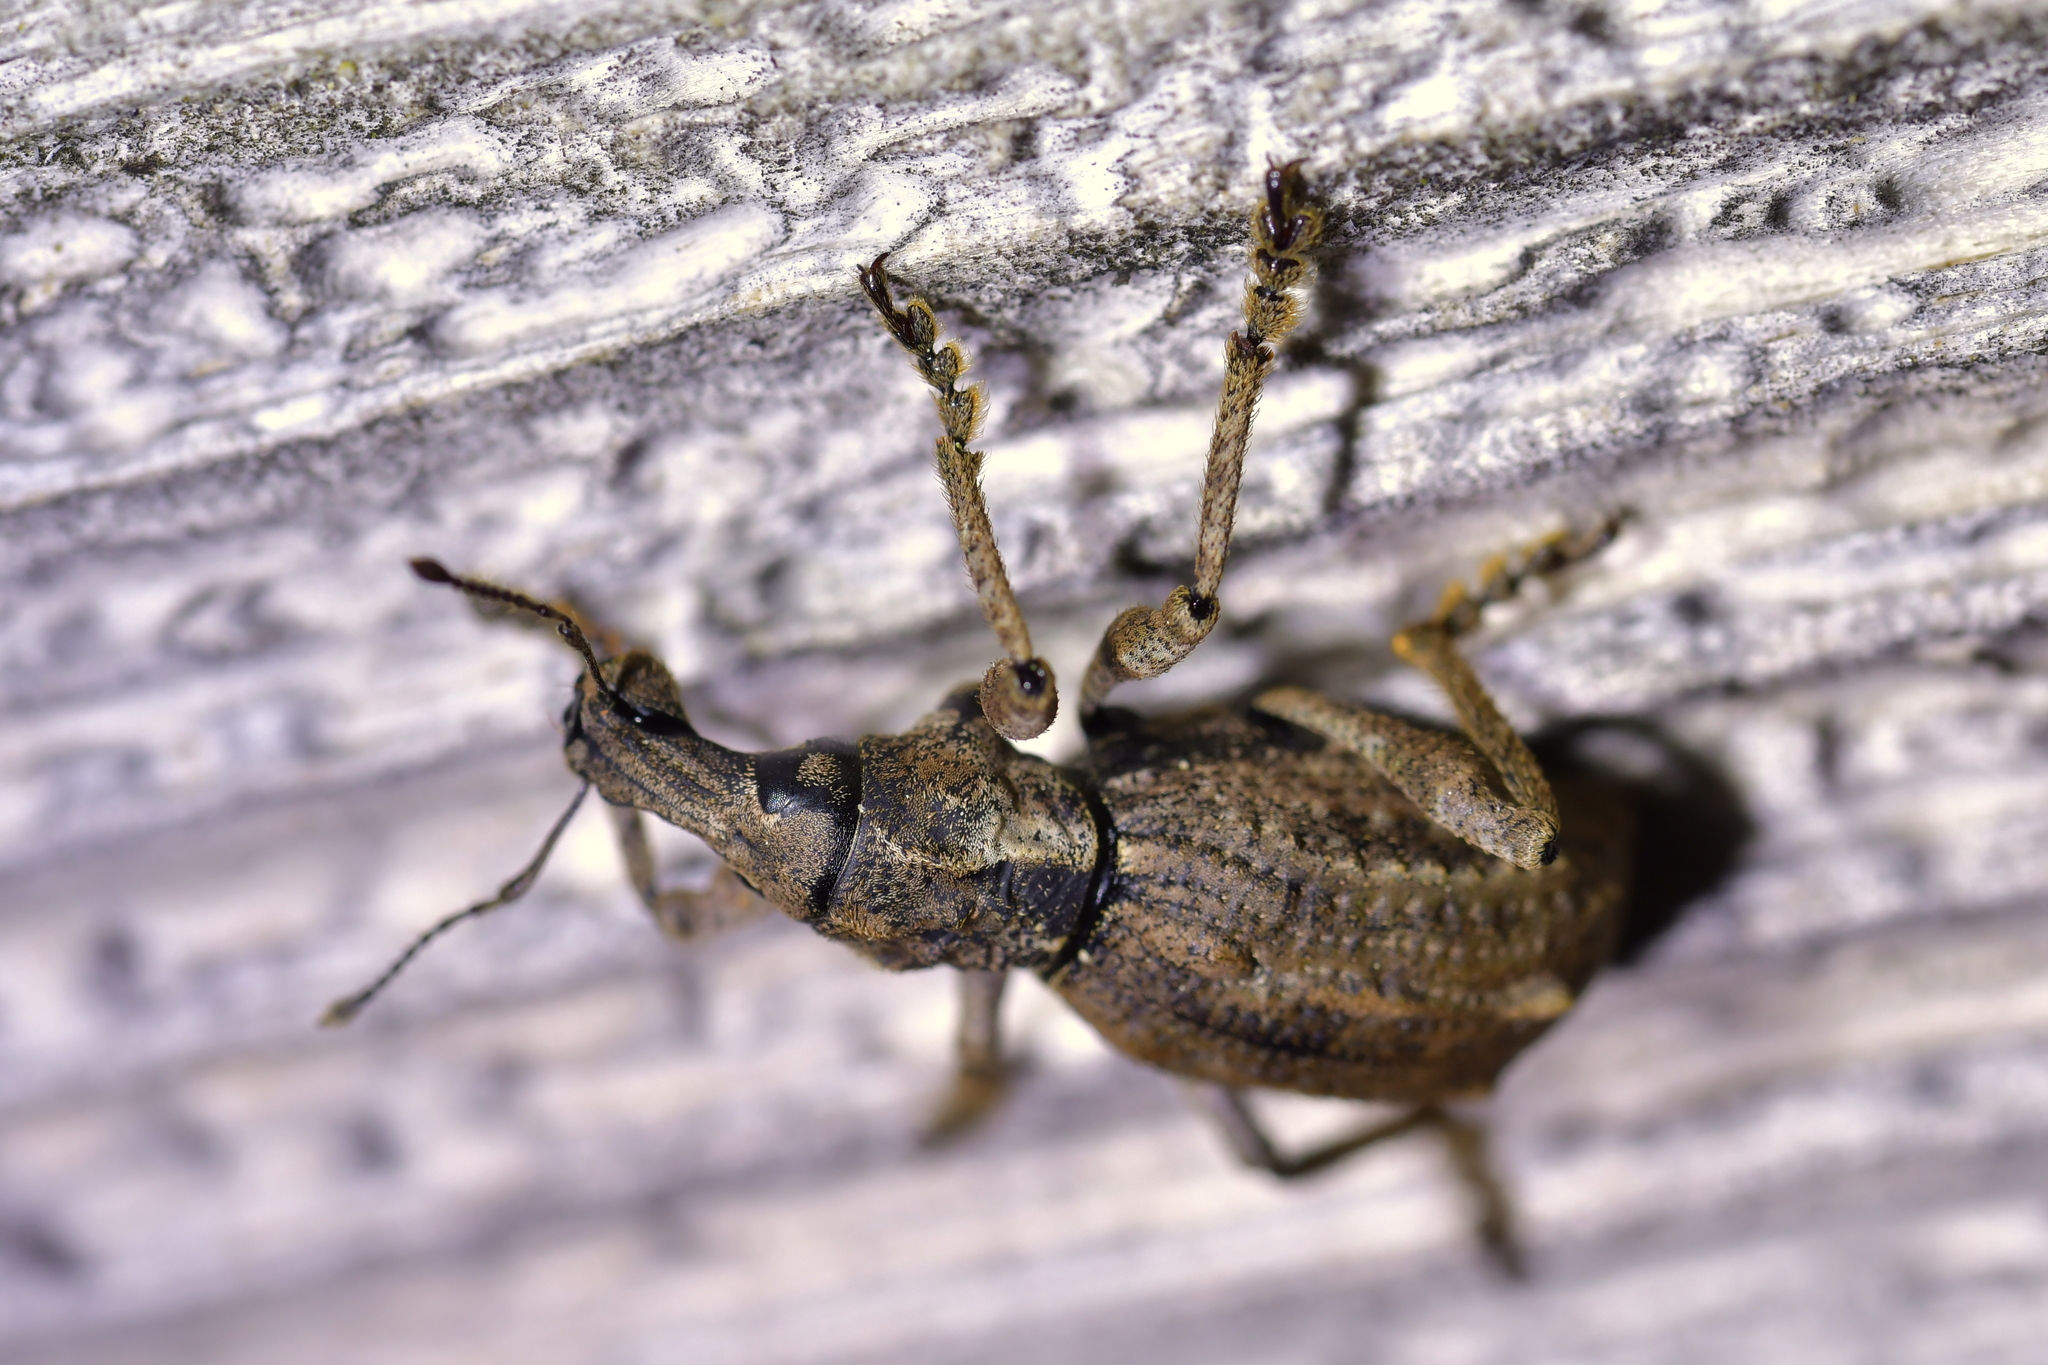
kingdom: Animalia
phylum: Arthropoda
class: Insecta
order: Coleoptera
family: Curculionidae
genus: Anagotus
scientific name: Anagotus fairburni
